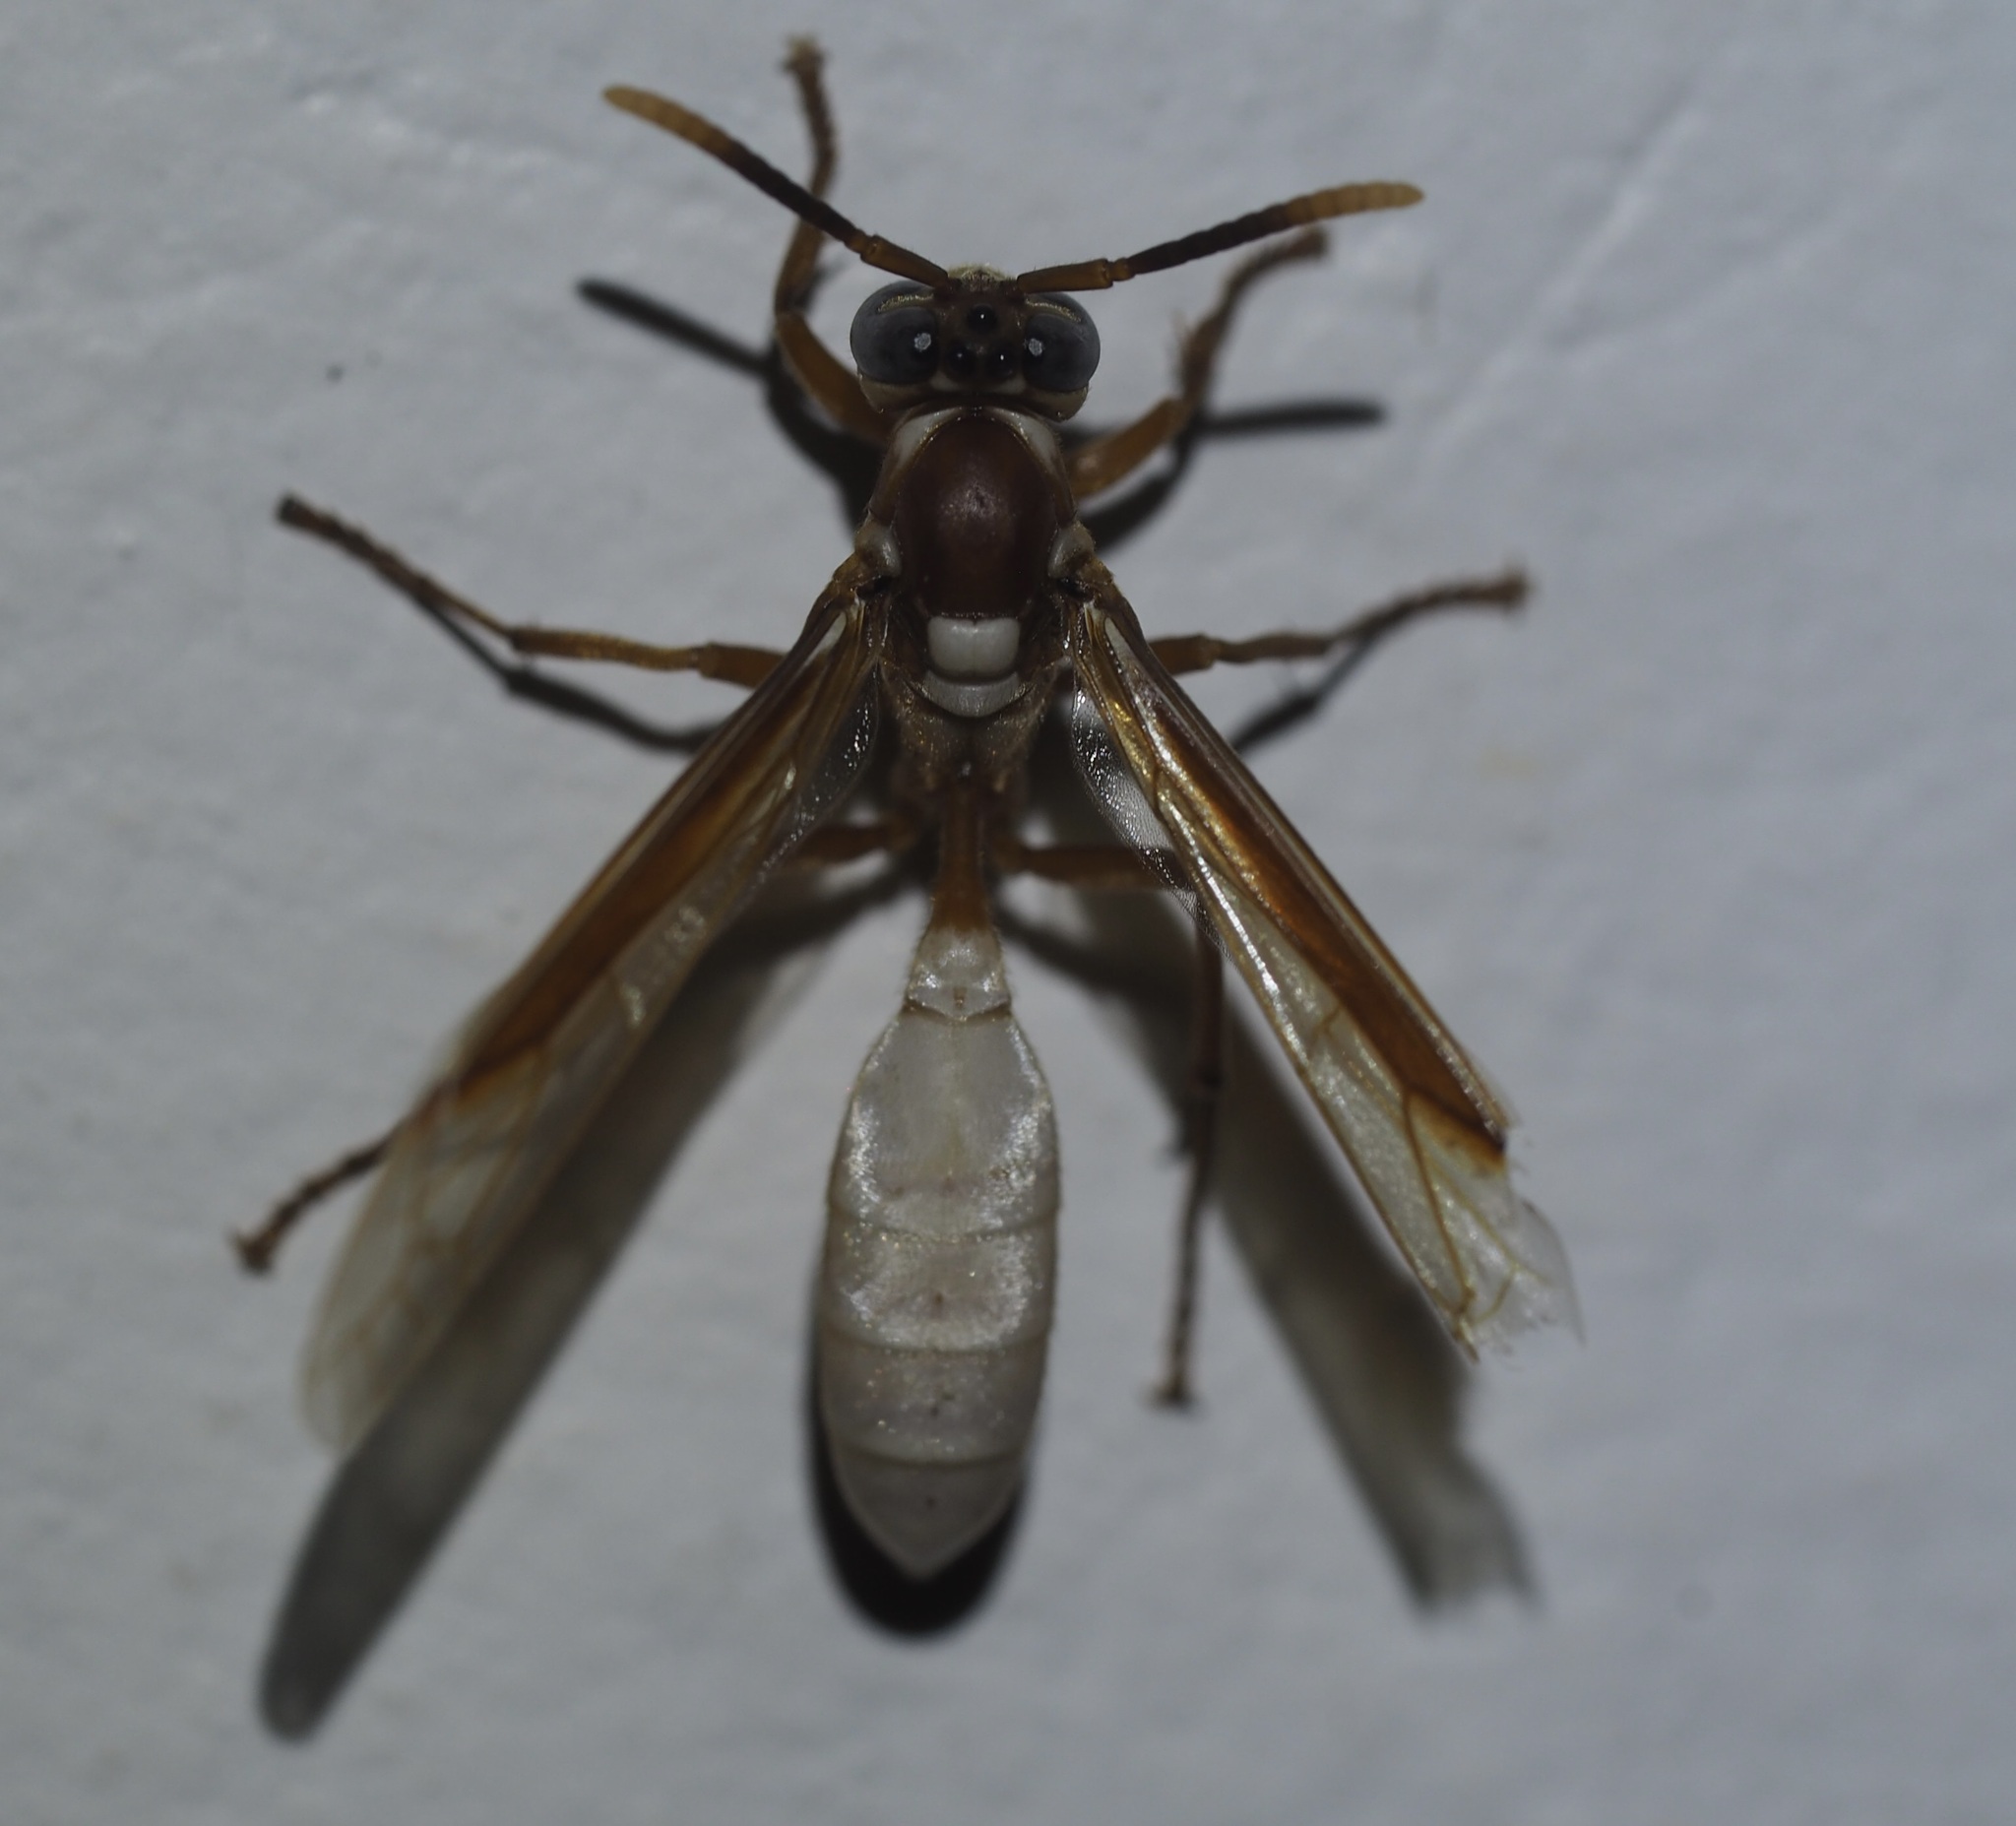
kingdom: Animalia
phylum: Arthropoda
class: Insecta
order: Hymenoptera
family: Vespidae
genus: Apoica
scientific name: Apoica gelida
